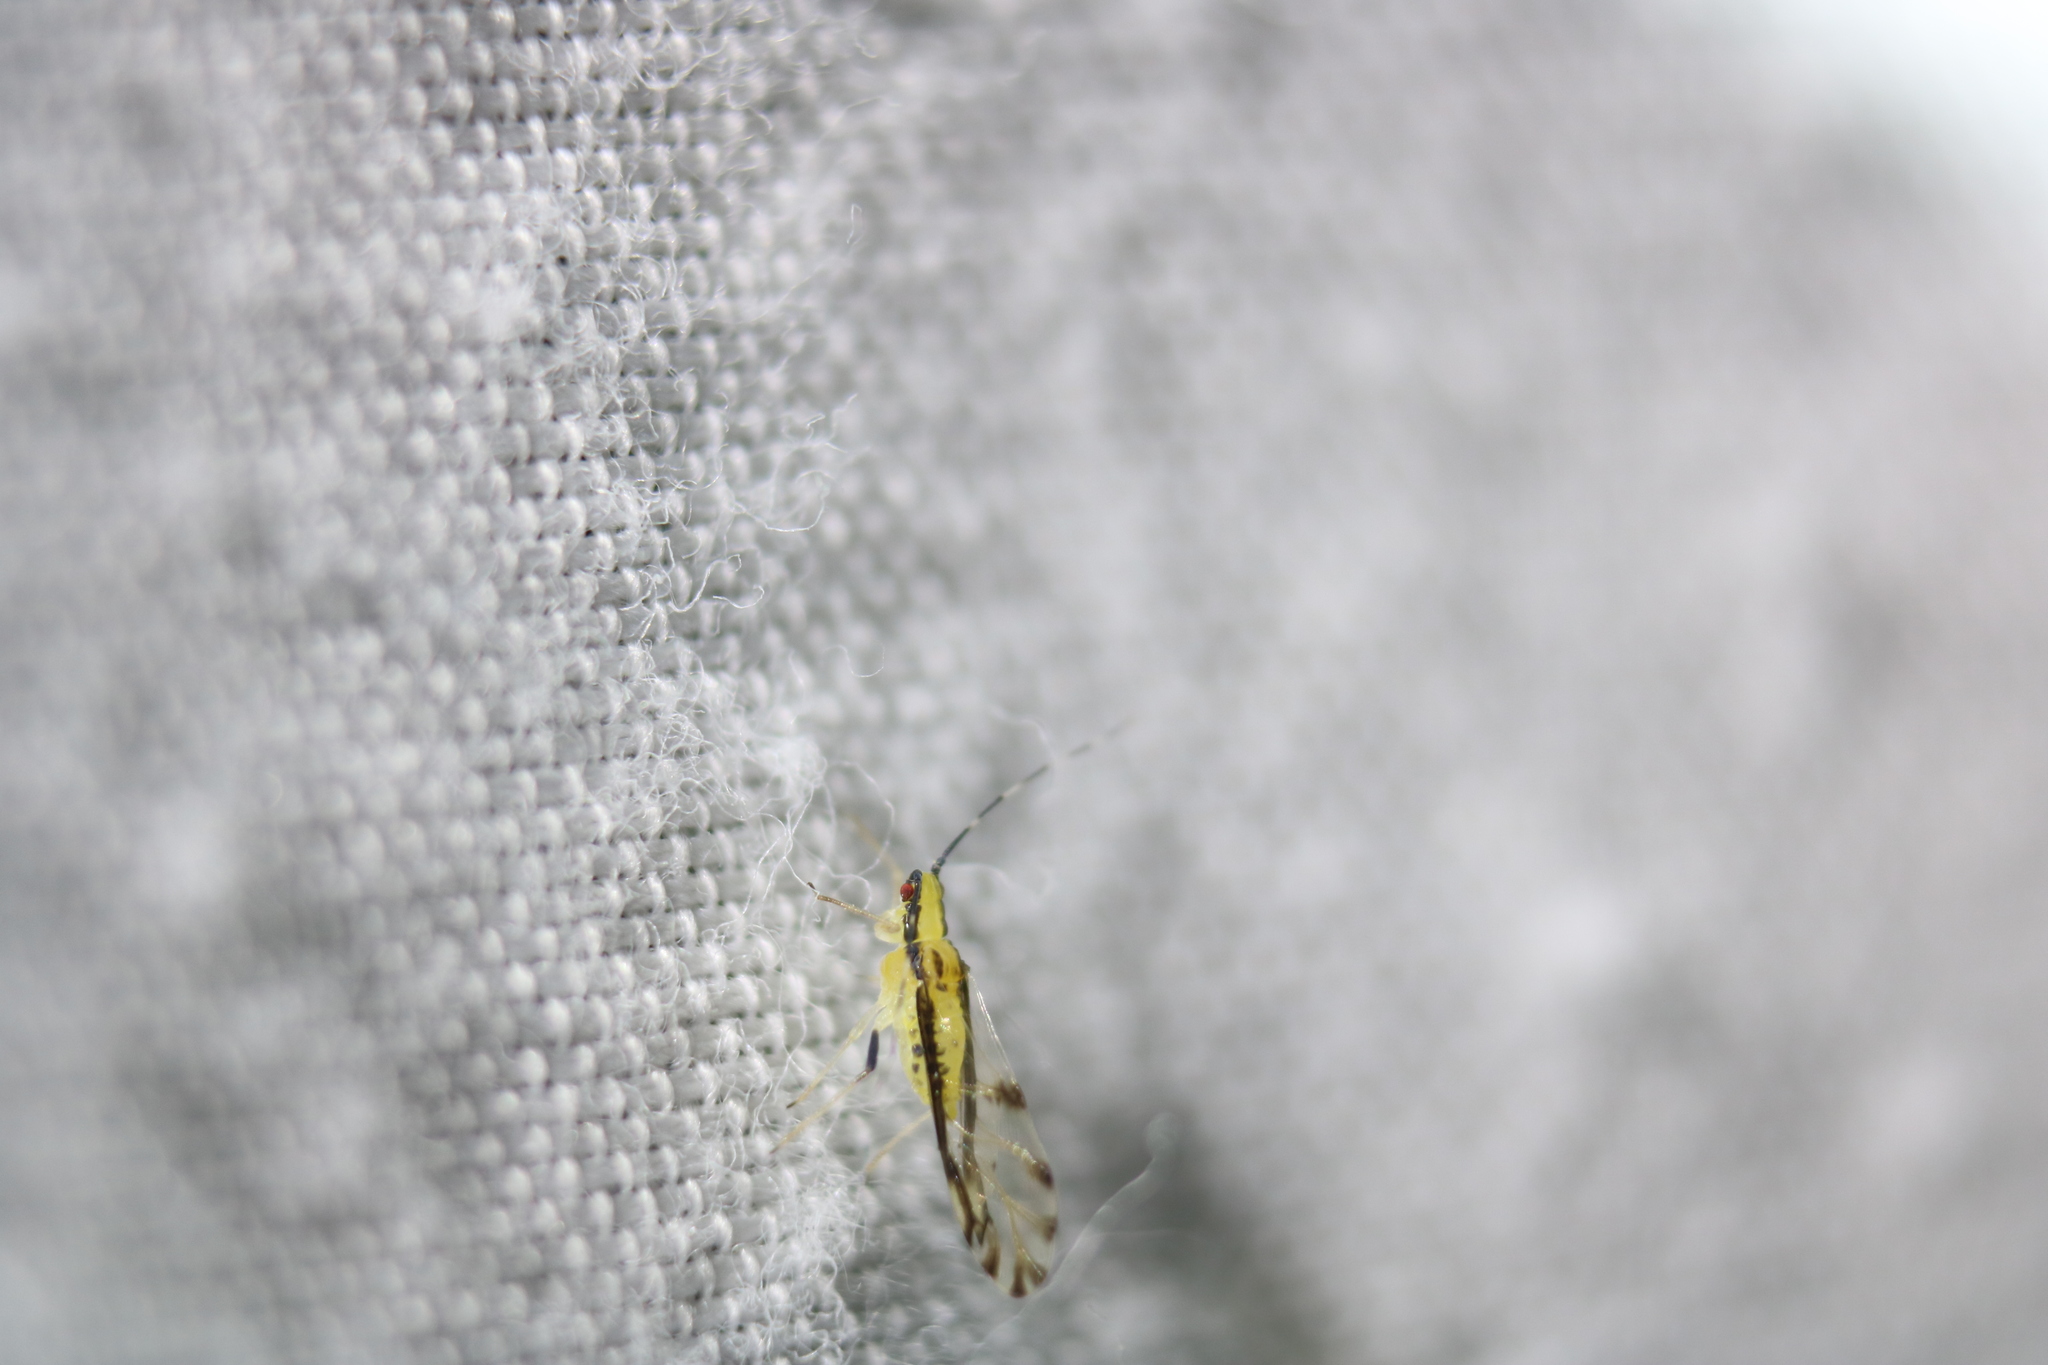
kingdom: Animalia
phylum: Arthropoda
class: Insecta
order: Hemiptera
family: Aphididae
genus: Eucallipterus
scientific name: Eucallipterus tiliae
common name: Aphid
